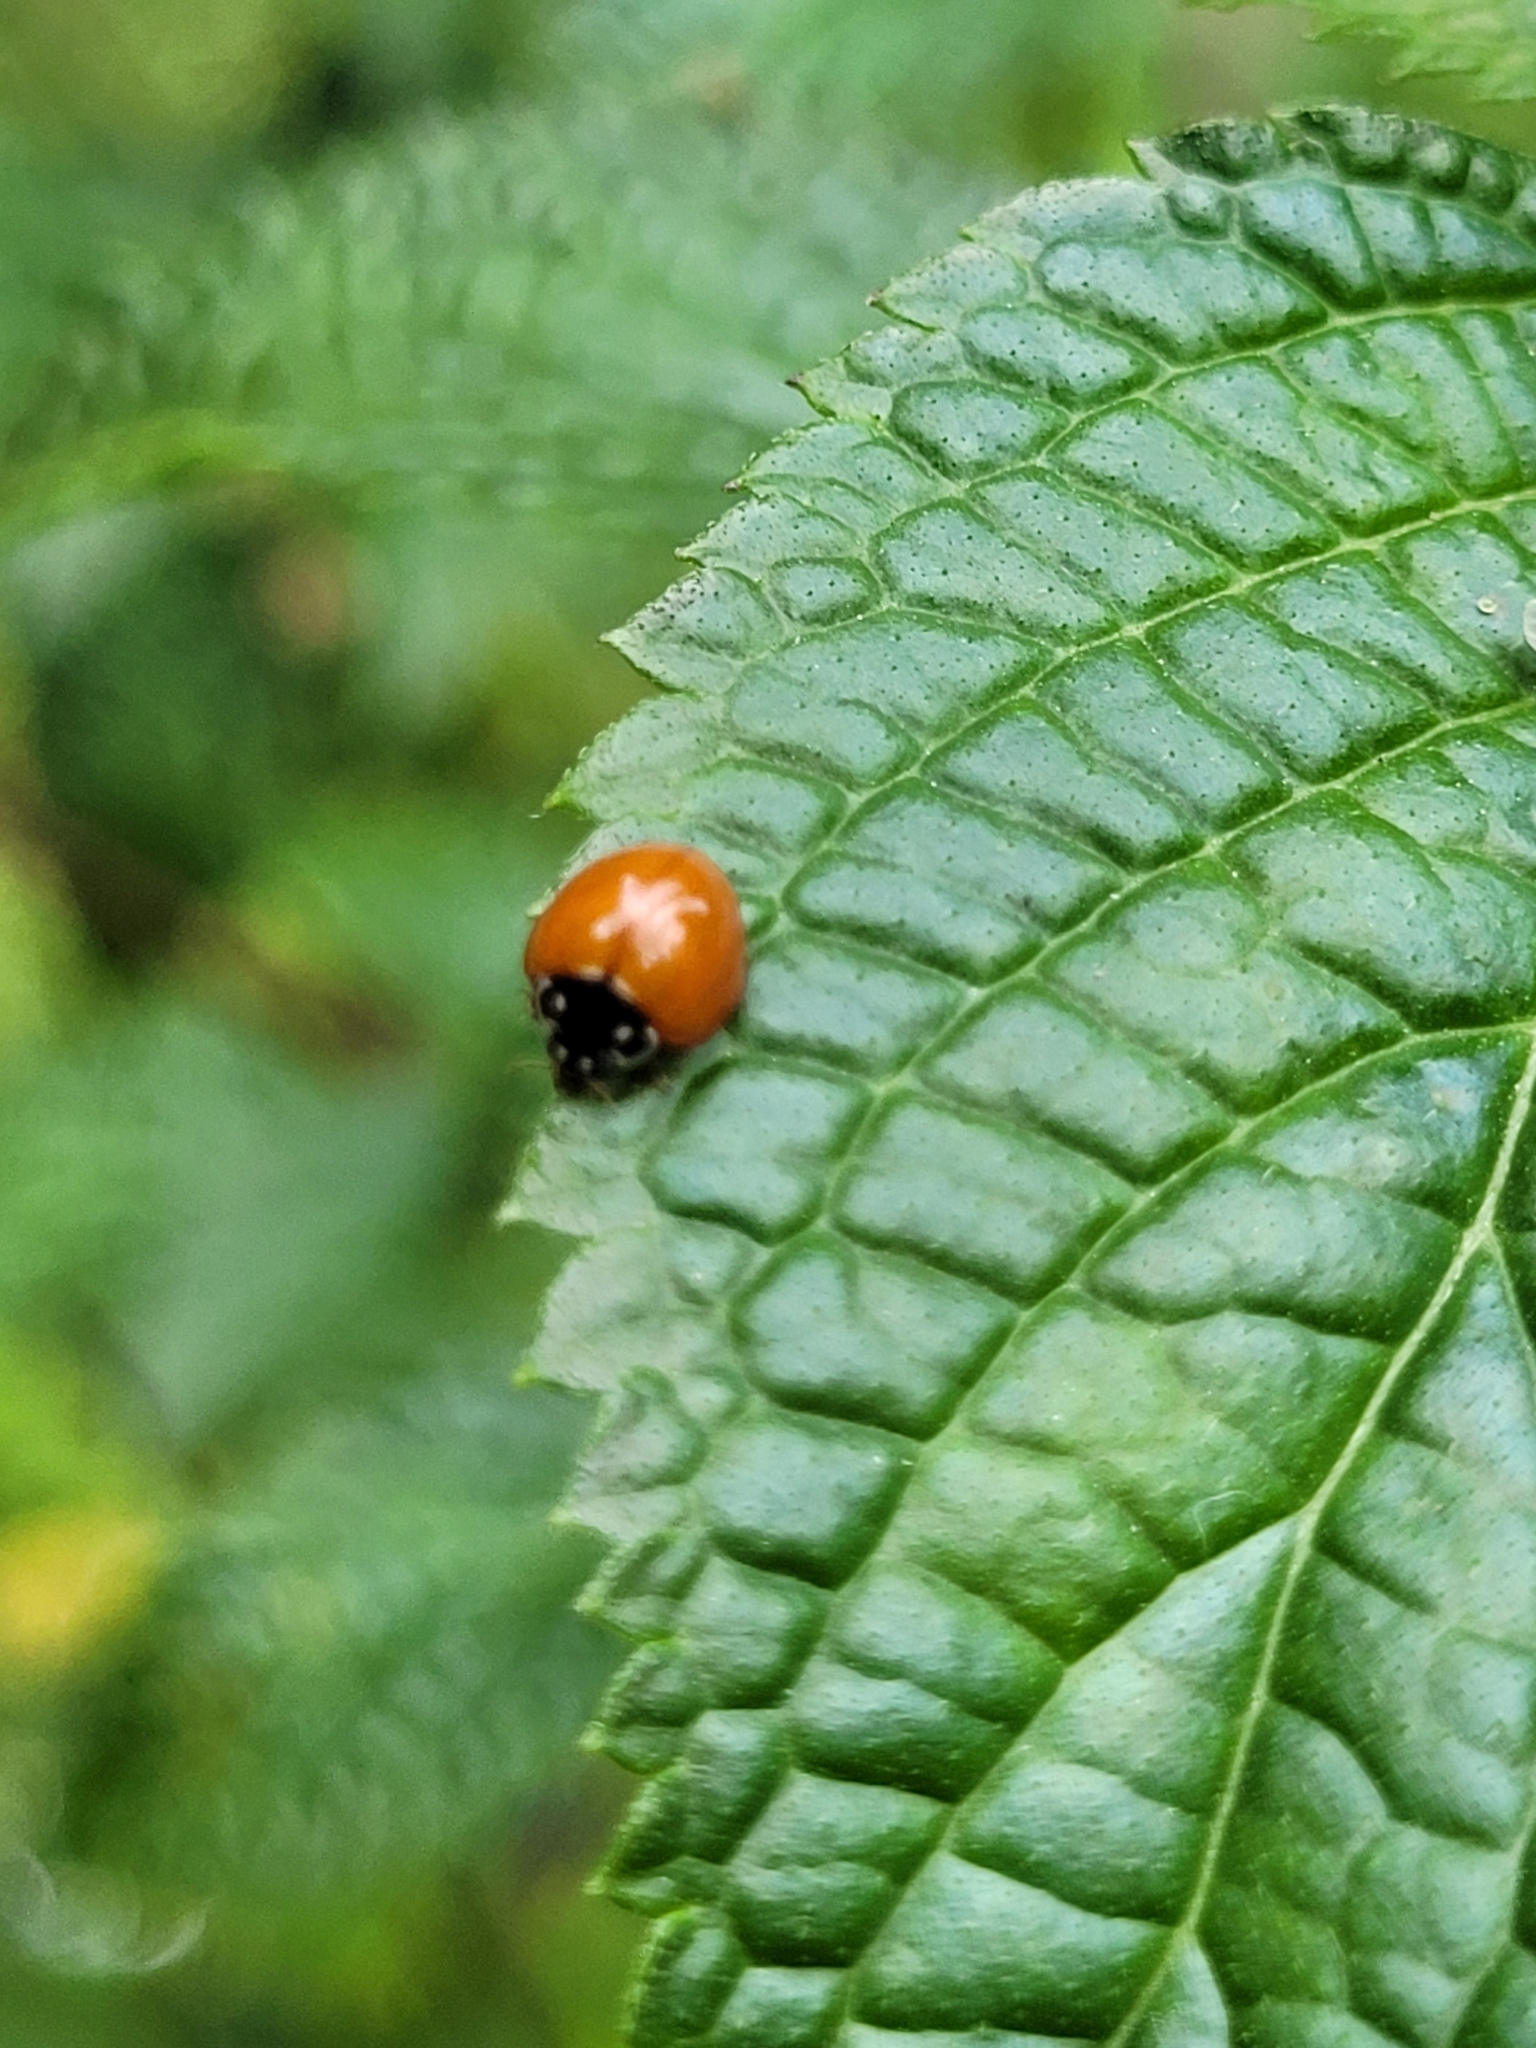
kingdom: Animalia
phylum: Arthropoda
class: Insecta
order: Coleoptera
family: Coccinellidae
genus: Cycloneda
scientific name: Cycloneda sanguinea
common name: Ladybird beetle
